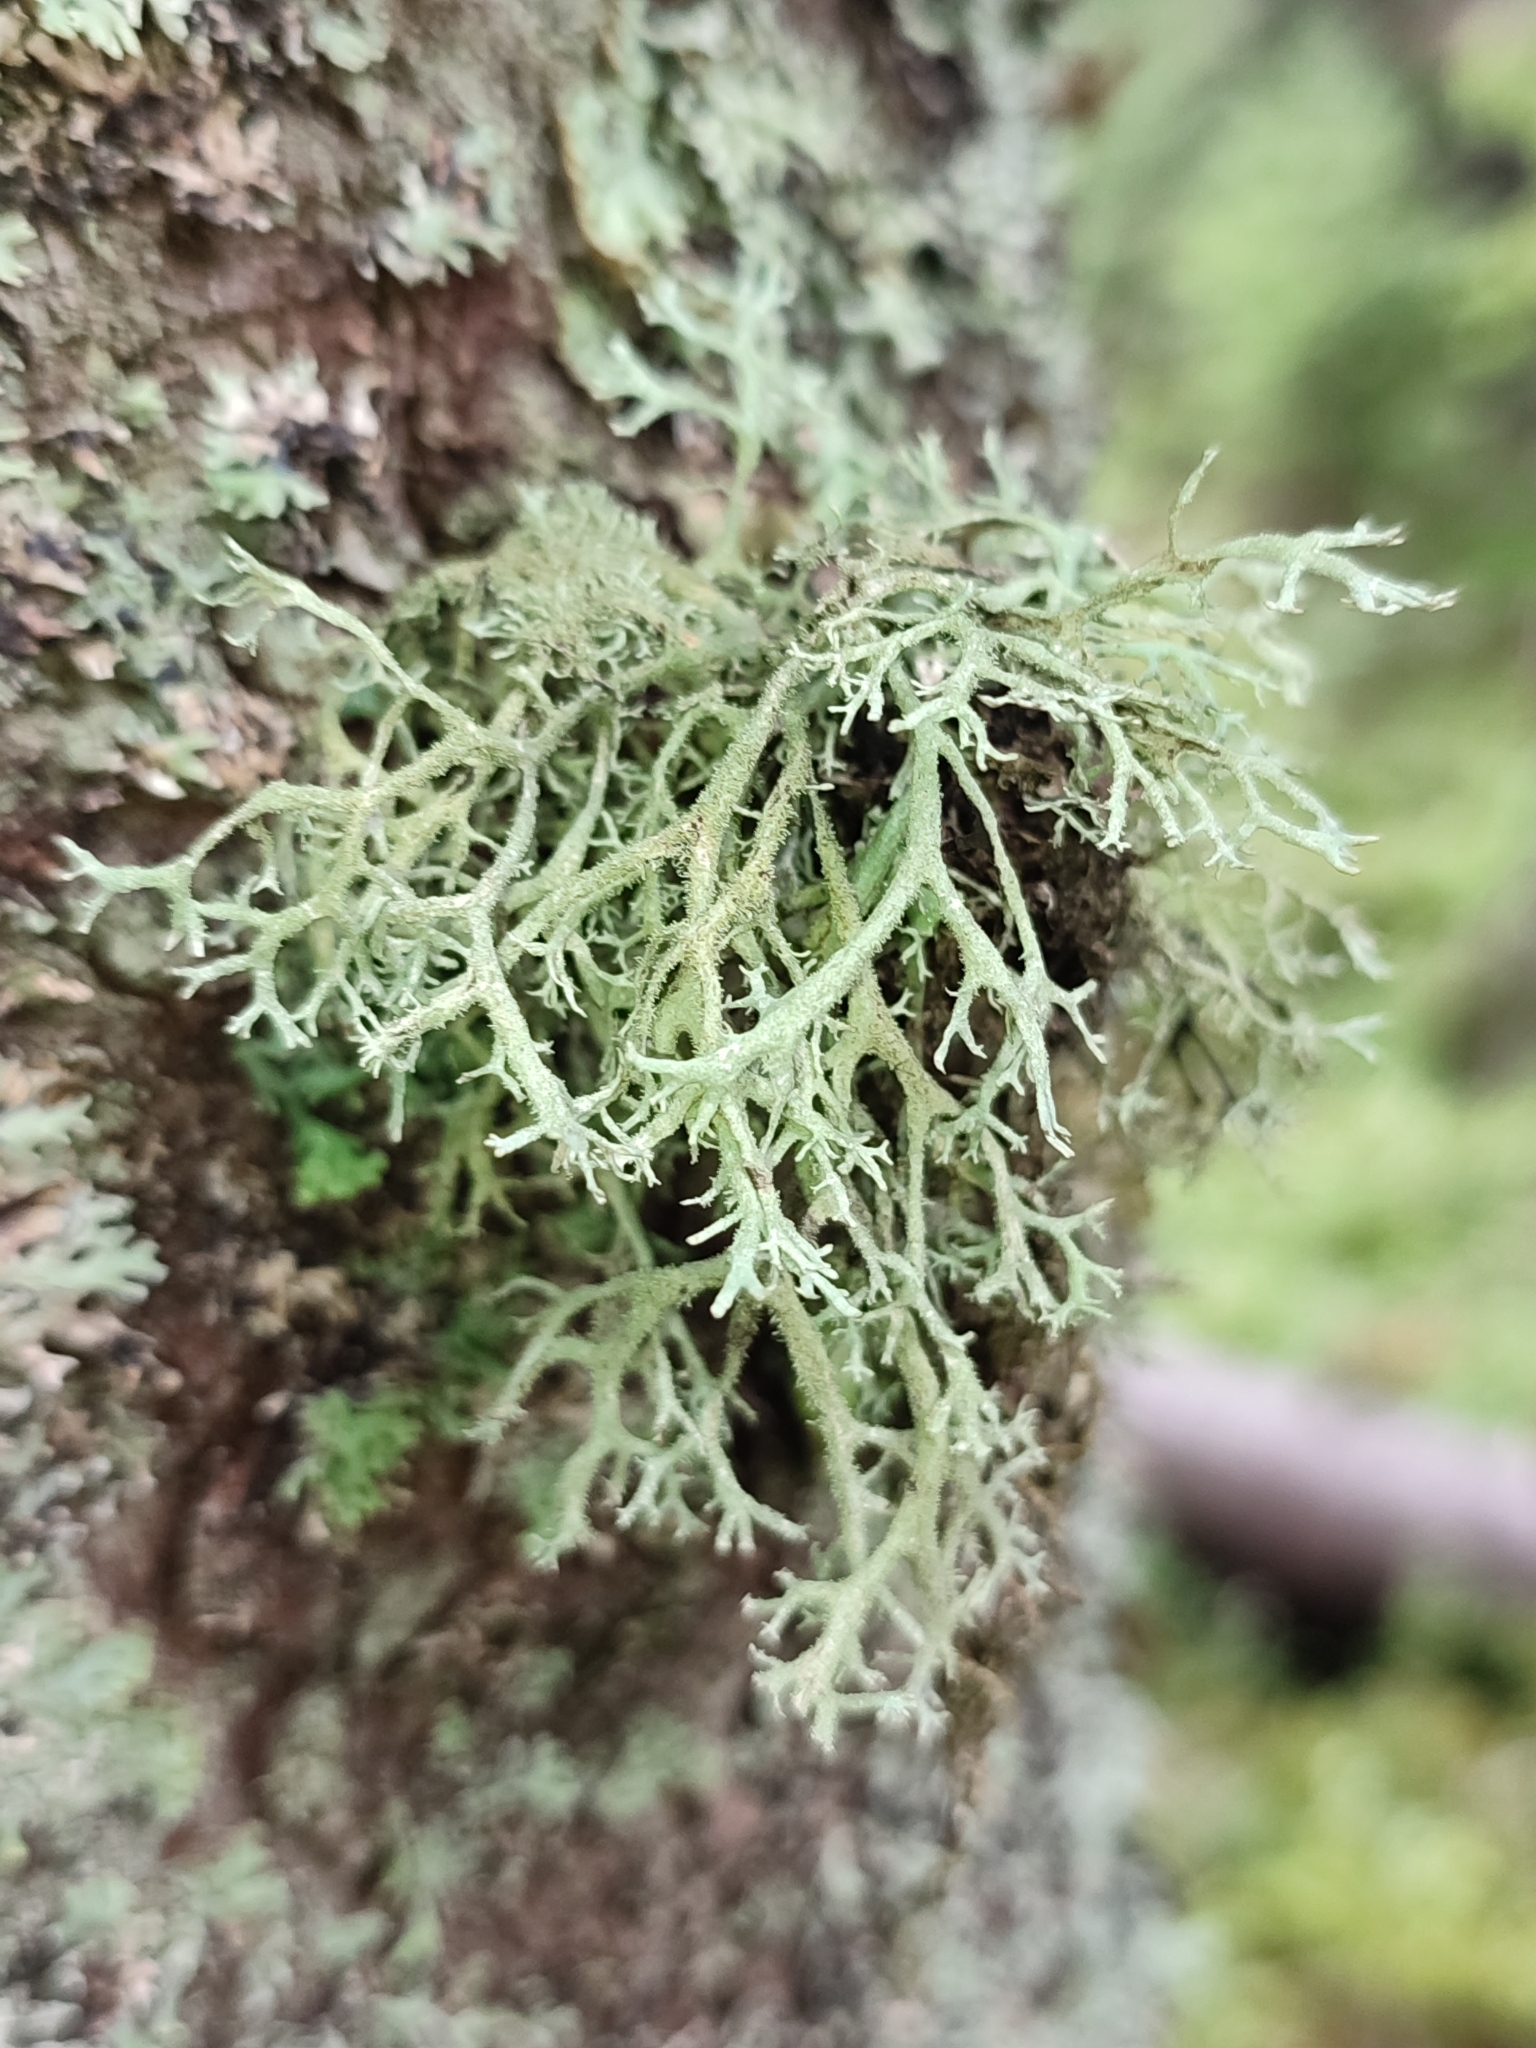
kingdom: Fungi
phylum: Ascomycota
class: Lecanoromycetes
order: Lecanorales
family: Parmeliaceae
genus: Pseudevernia
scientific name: Pseudevernia furfuracea
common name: Tree moss
